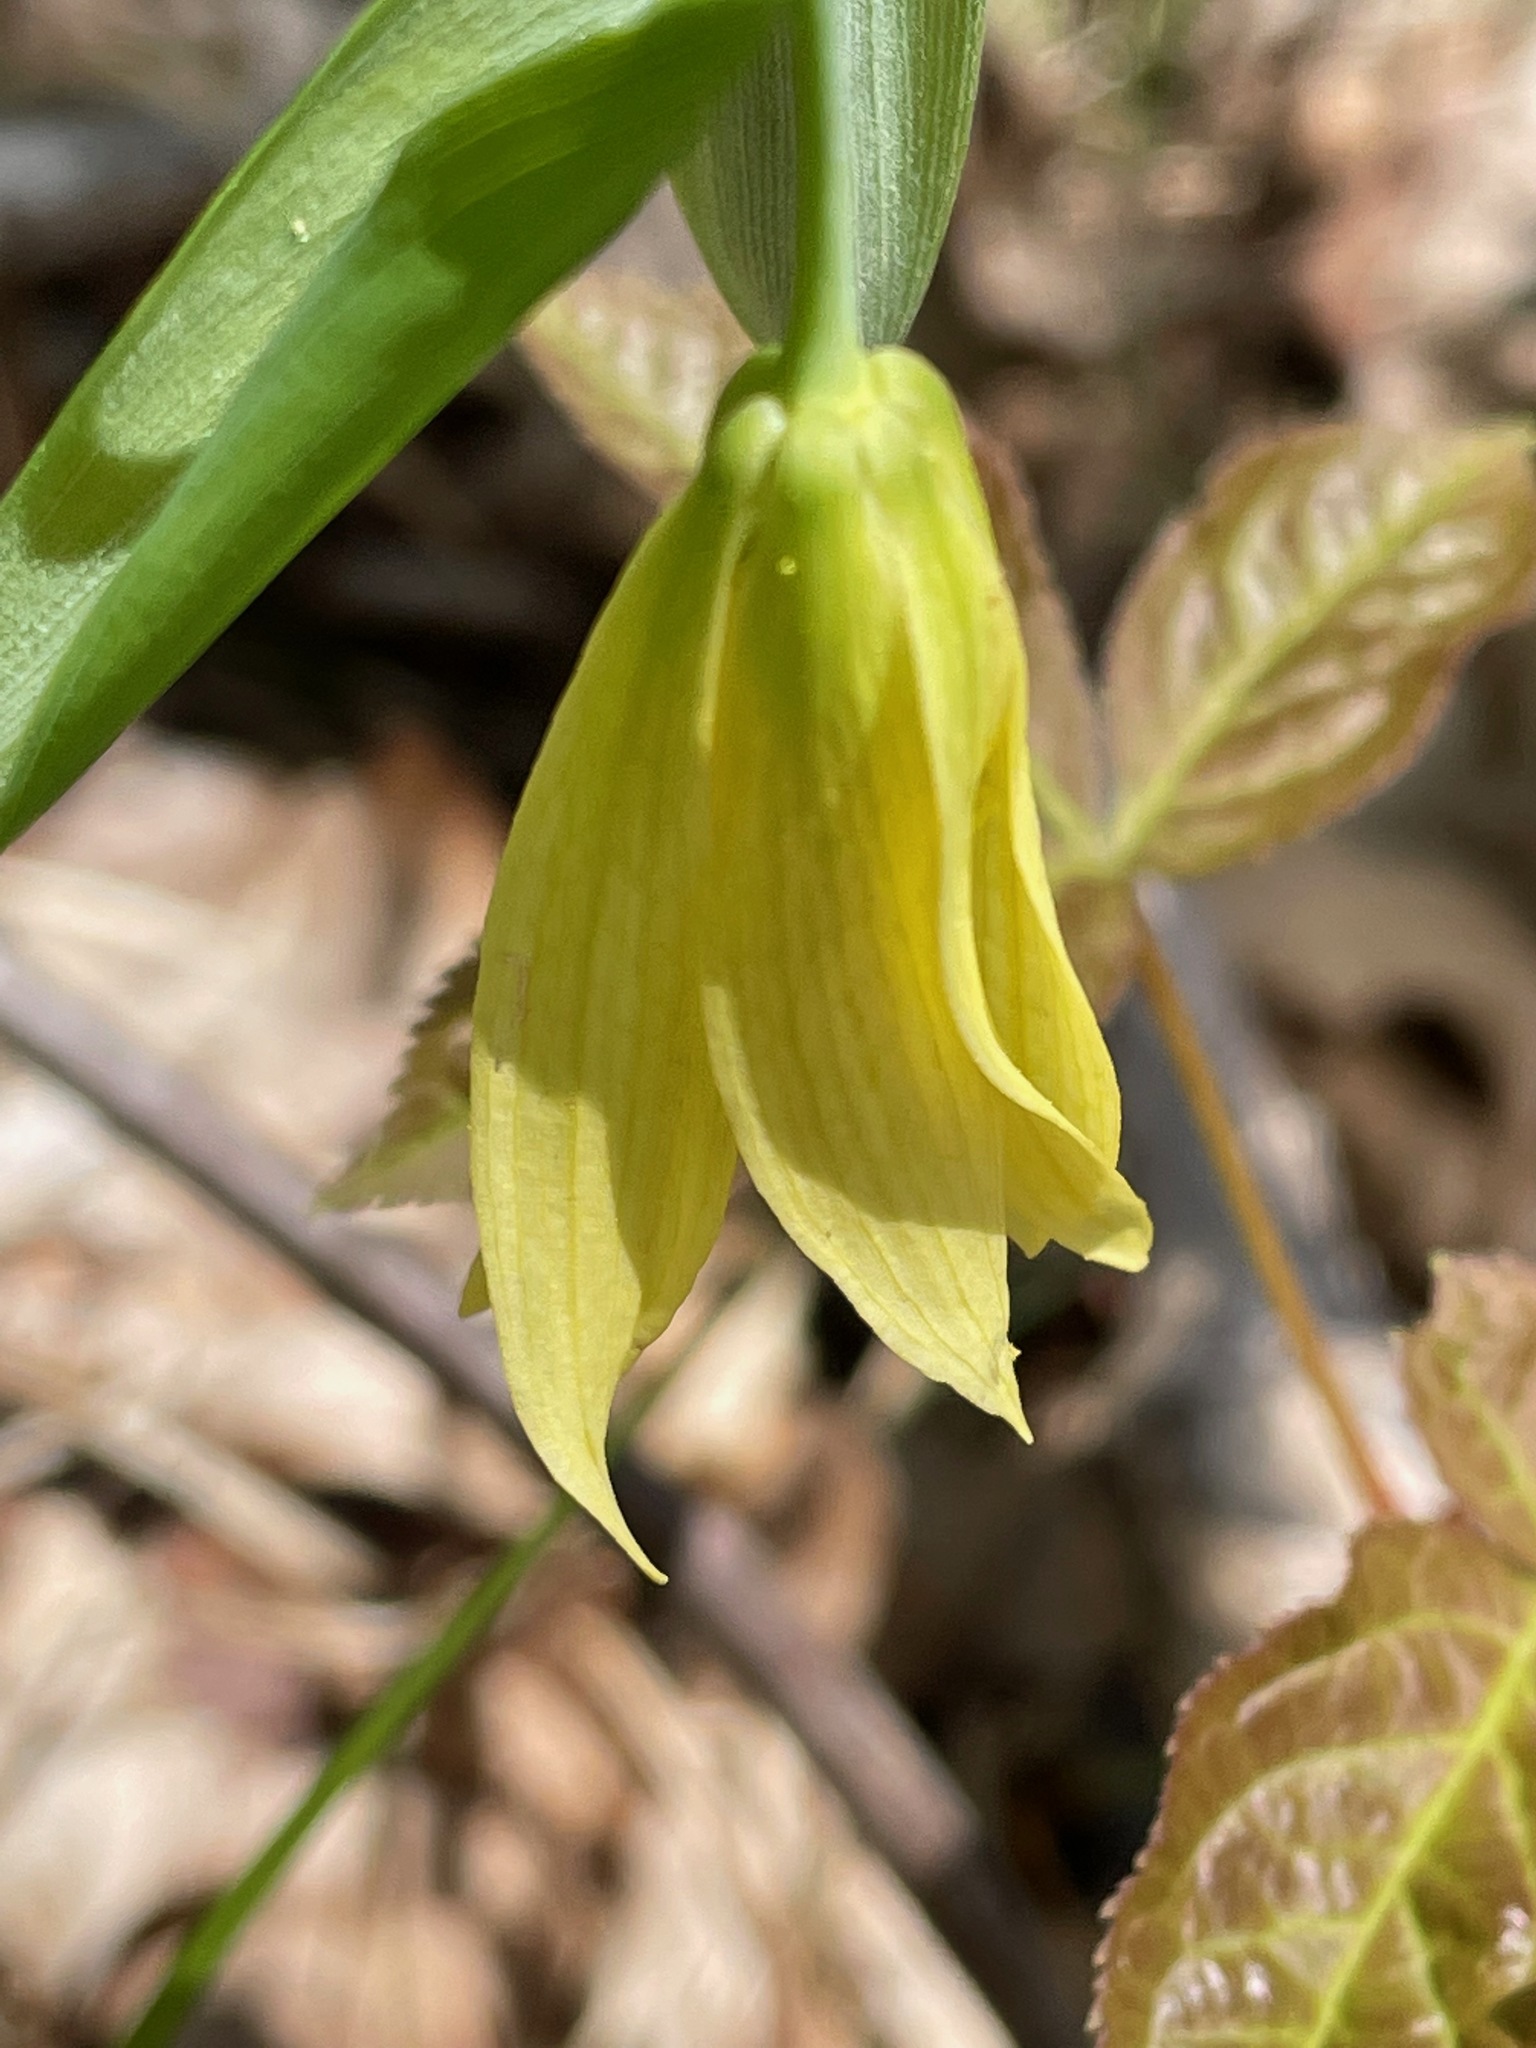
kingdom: Plantae
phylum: Tracheophyta
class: Liliopsida
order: Liliales
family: Colchicaceae
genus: Uvularia
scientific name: Uvularia grandiflora
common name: Bellwort
